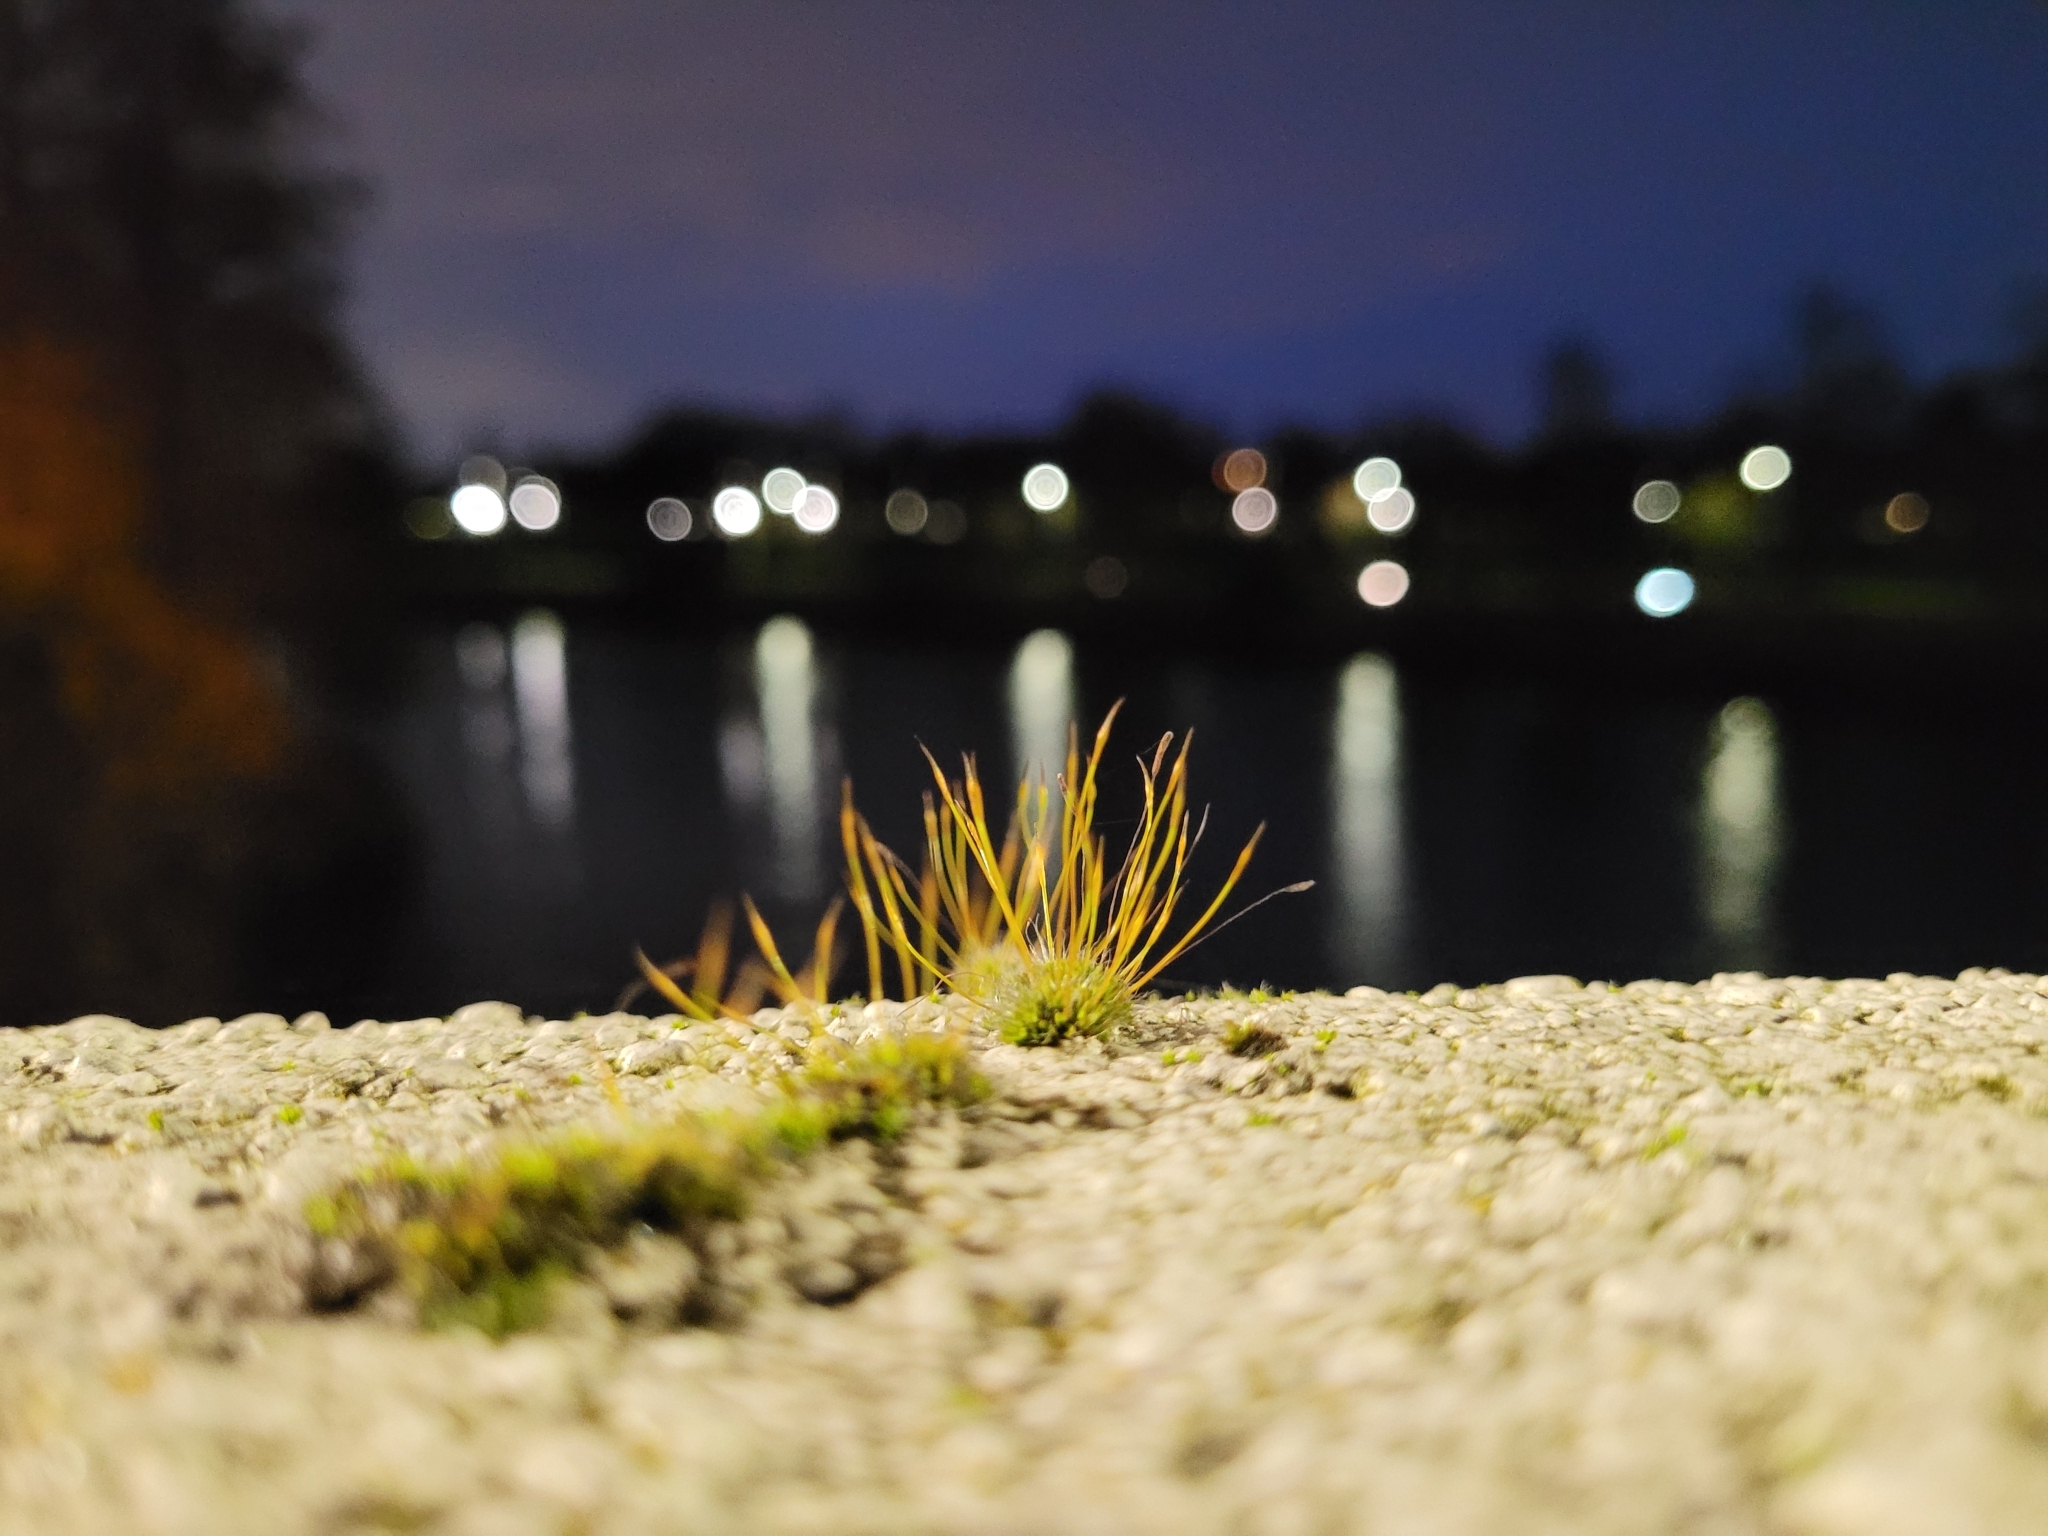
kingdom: Plantae
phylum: Bryophyta
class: Bryopsida
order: Pottiales
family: Pottiaceae
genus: Tortula
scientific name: Tortula muralis
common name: Wall screw-moss
